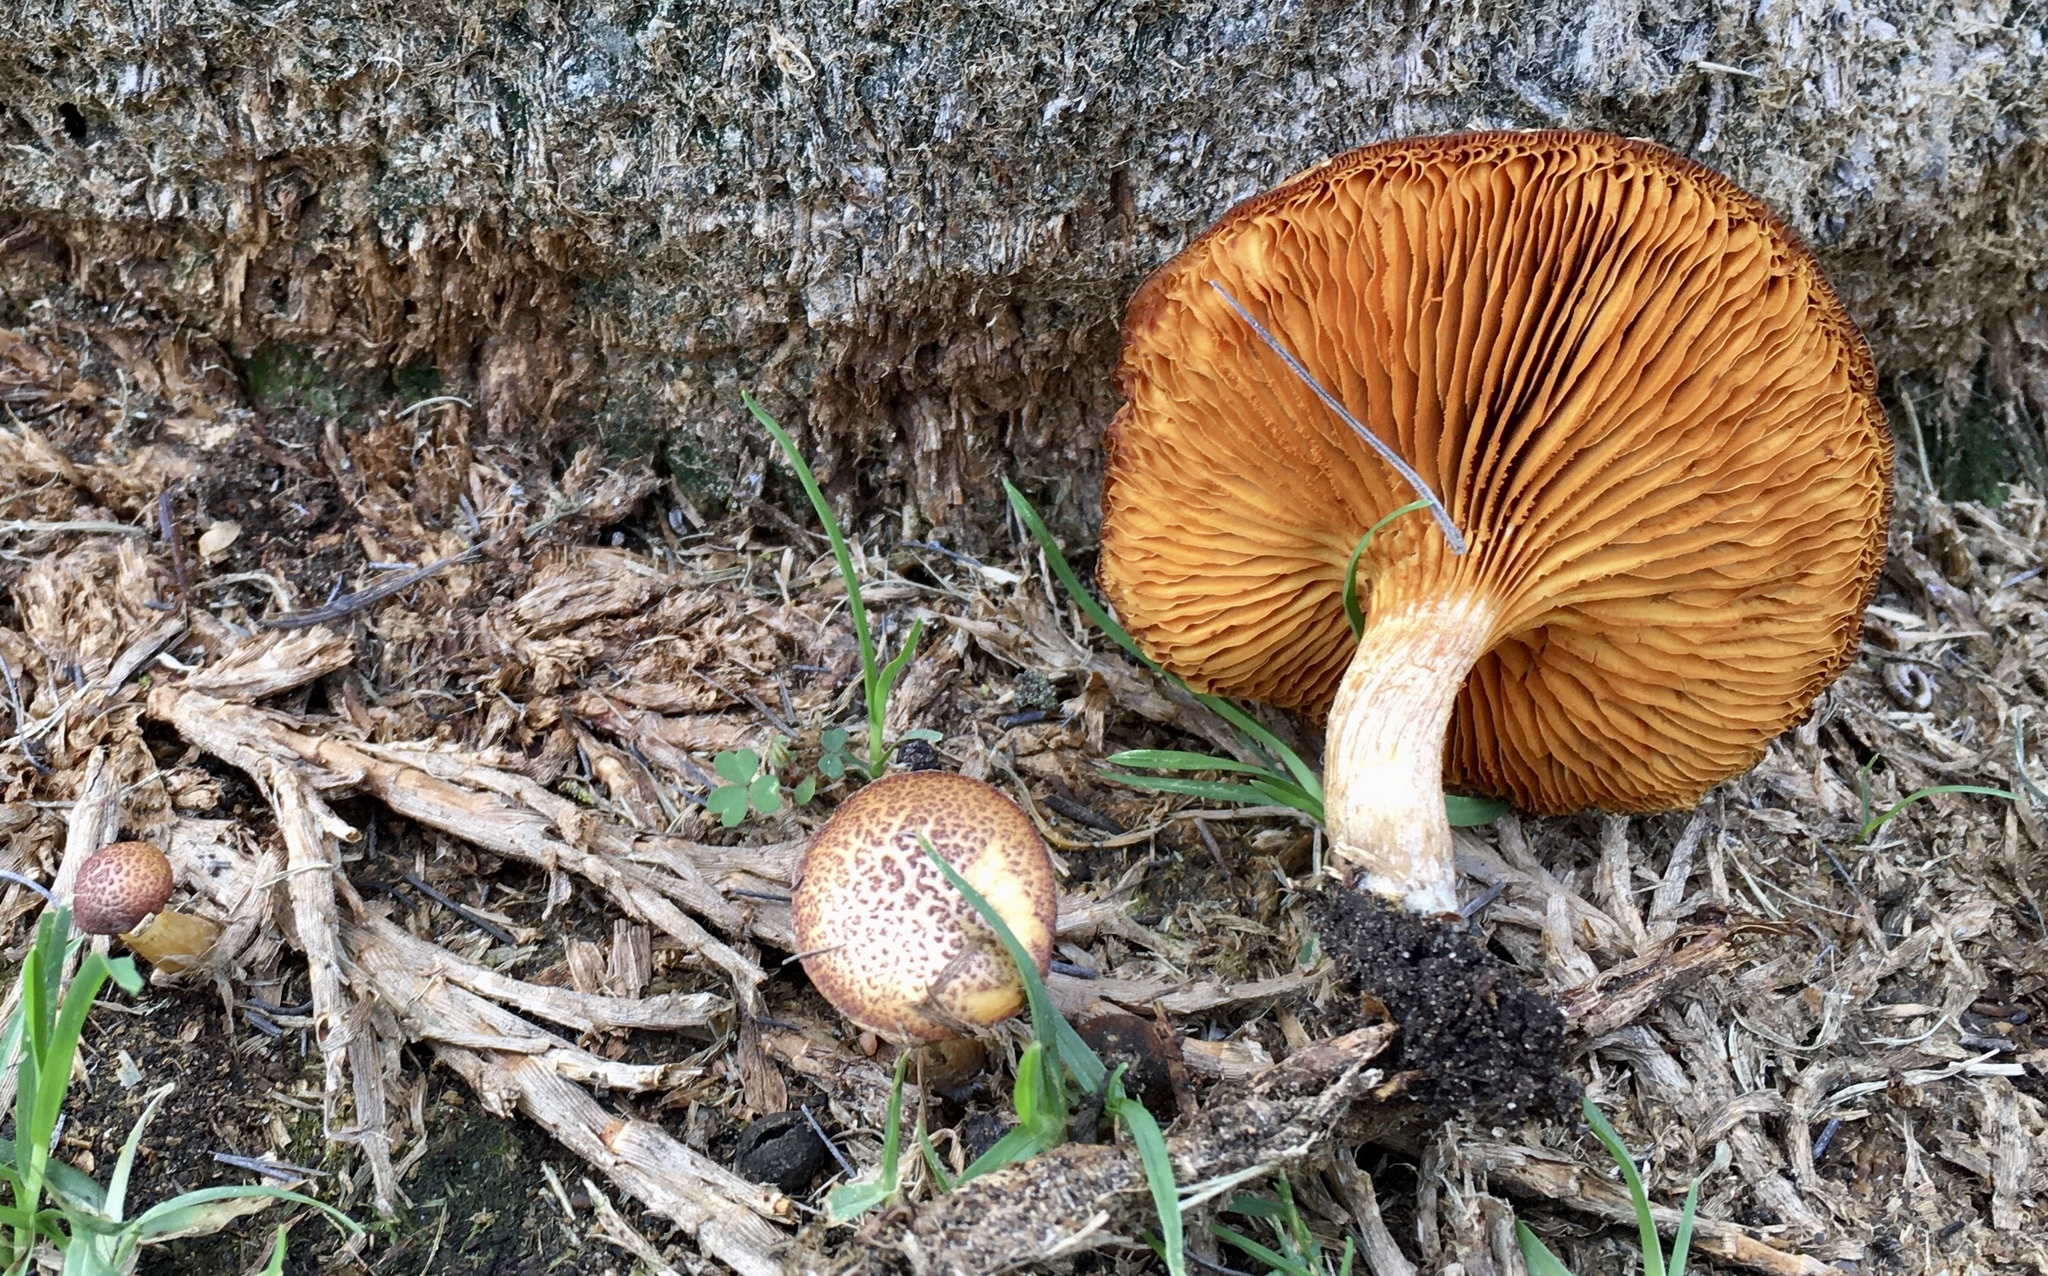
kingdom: Fungi
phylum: Basidiomycota
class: Agaricomycetes
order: Agaricales
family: Hymenogastraceae
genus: Gymnopilus
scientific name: Gymnopilus luteofolius
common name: Yellow-gilled gymnopilus
